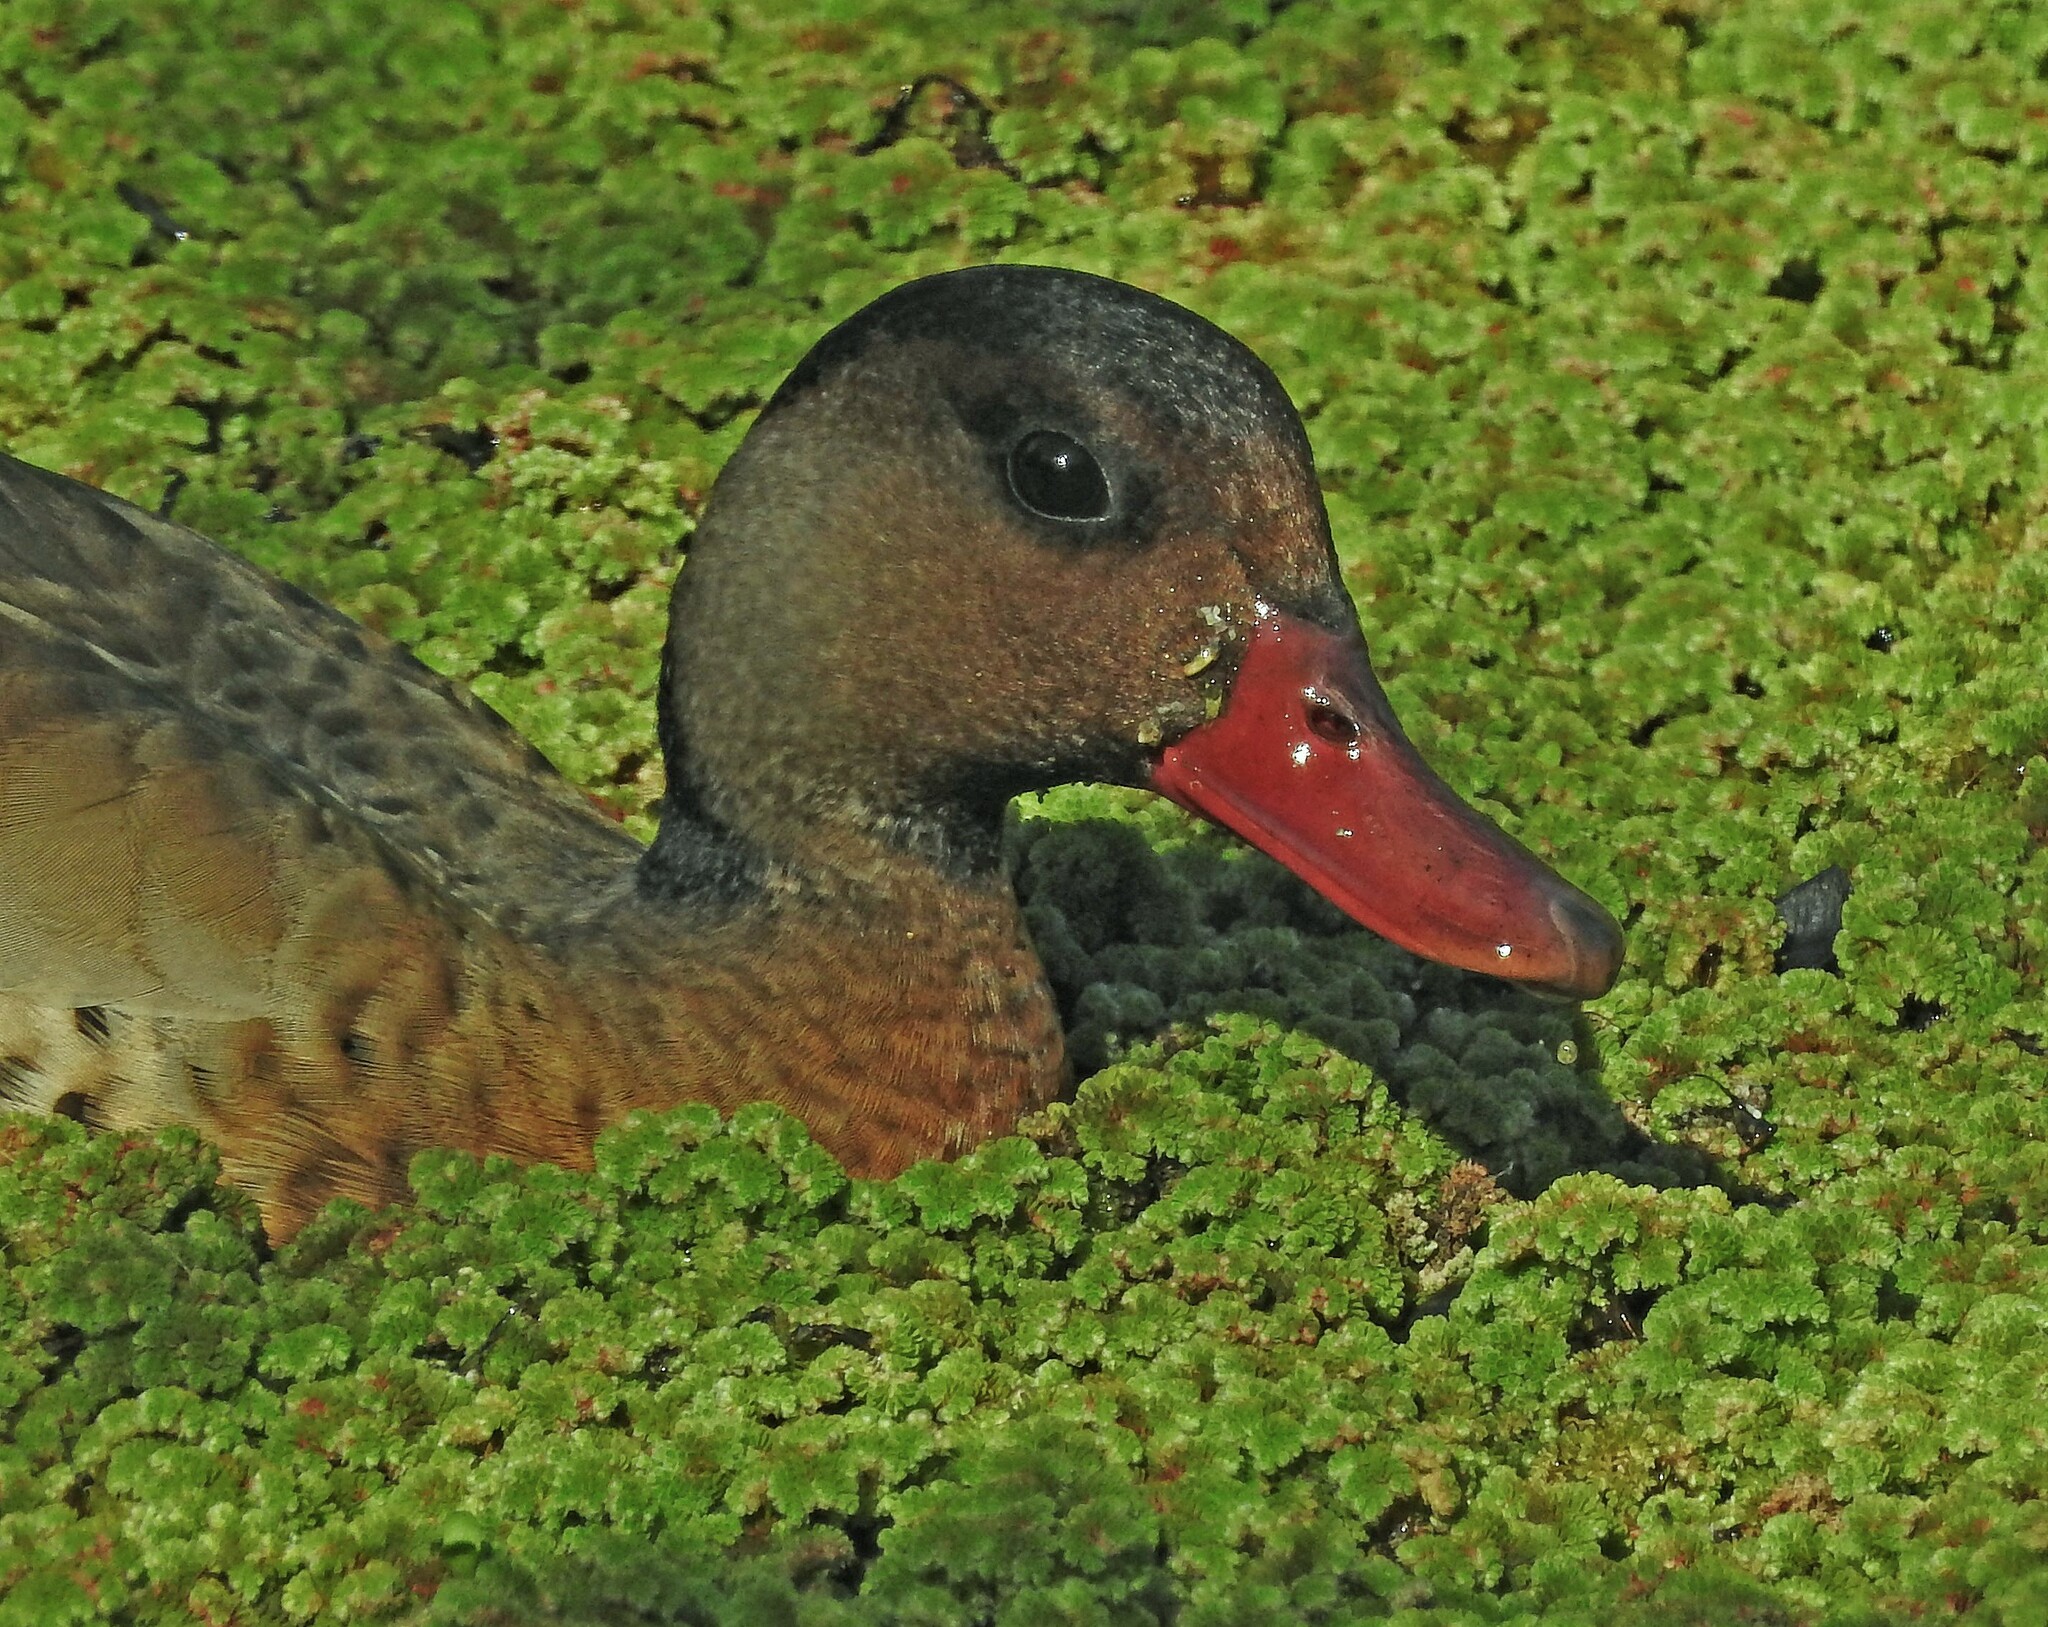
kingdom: Animalia
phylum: Chordata
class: Aves
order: Anseriformes
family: Anatidae
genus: Amazonetta
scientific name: Amazonetta brasiliensis
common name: Brazilian teal
